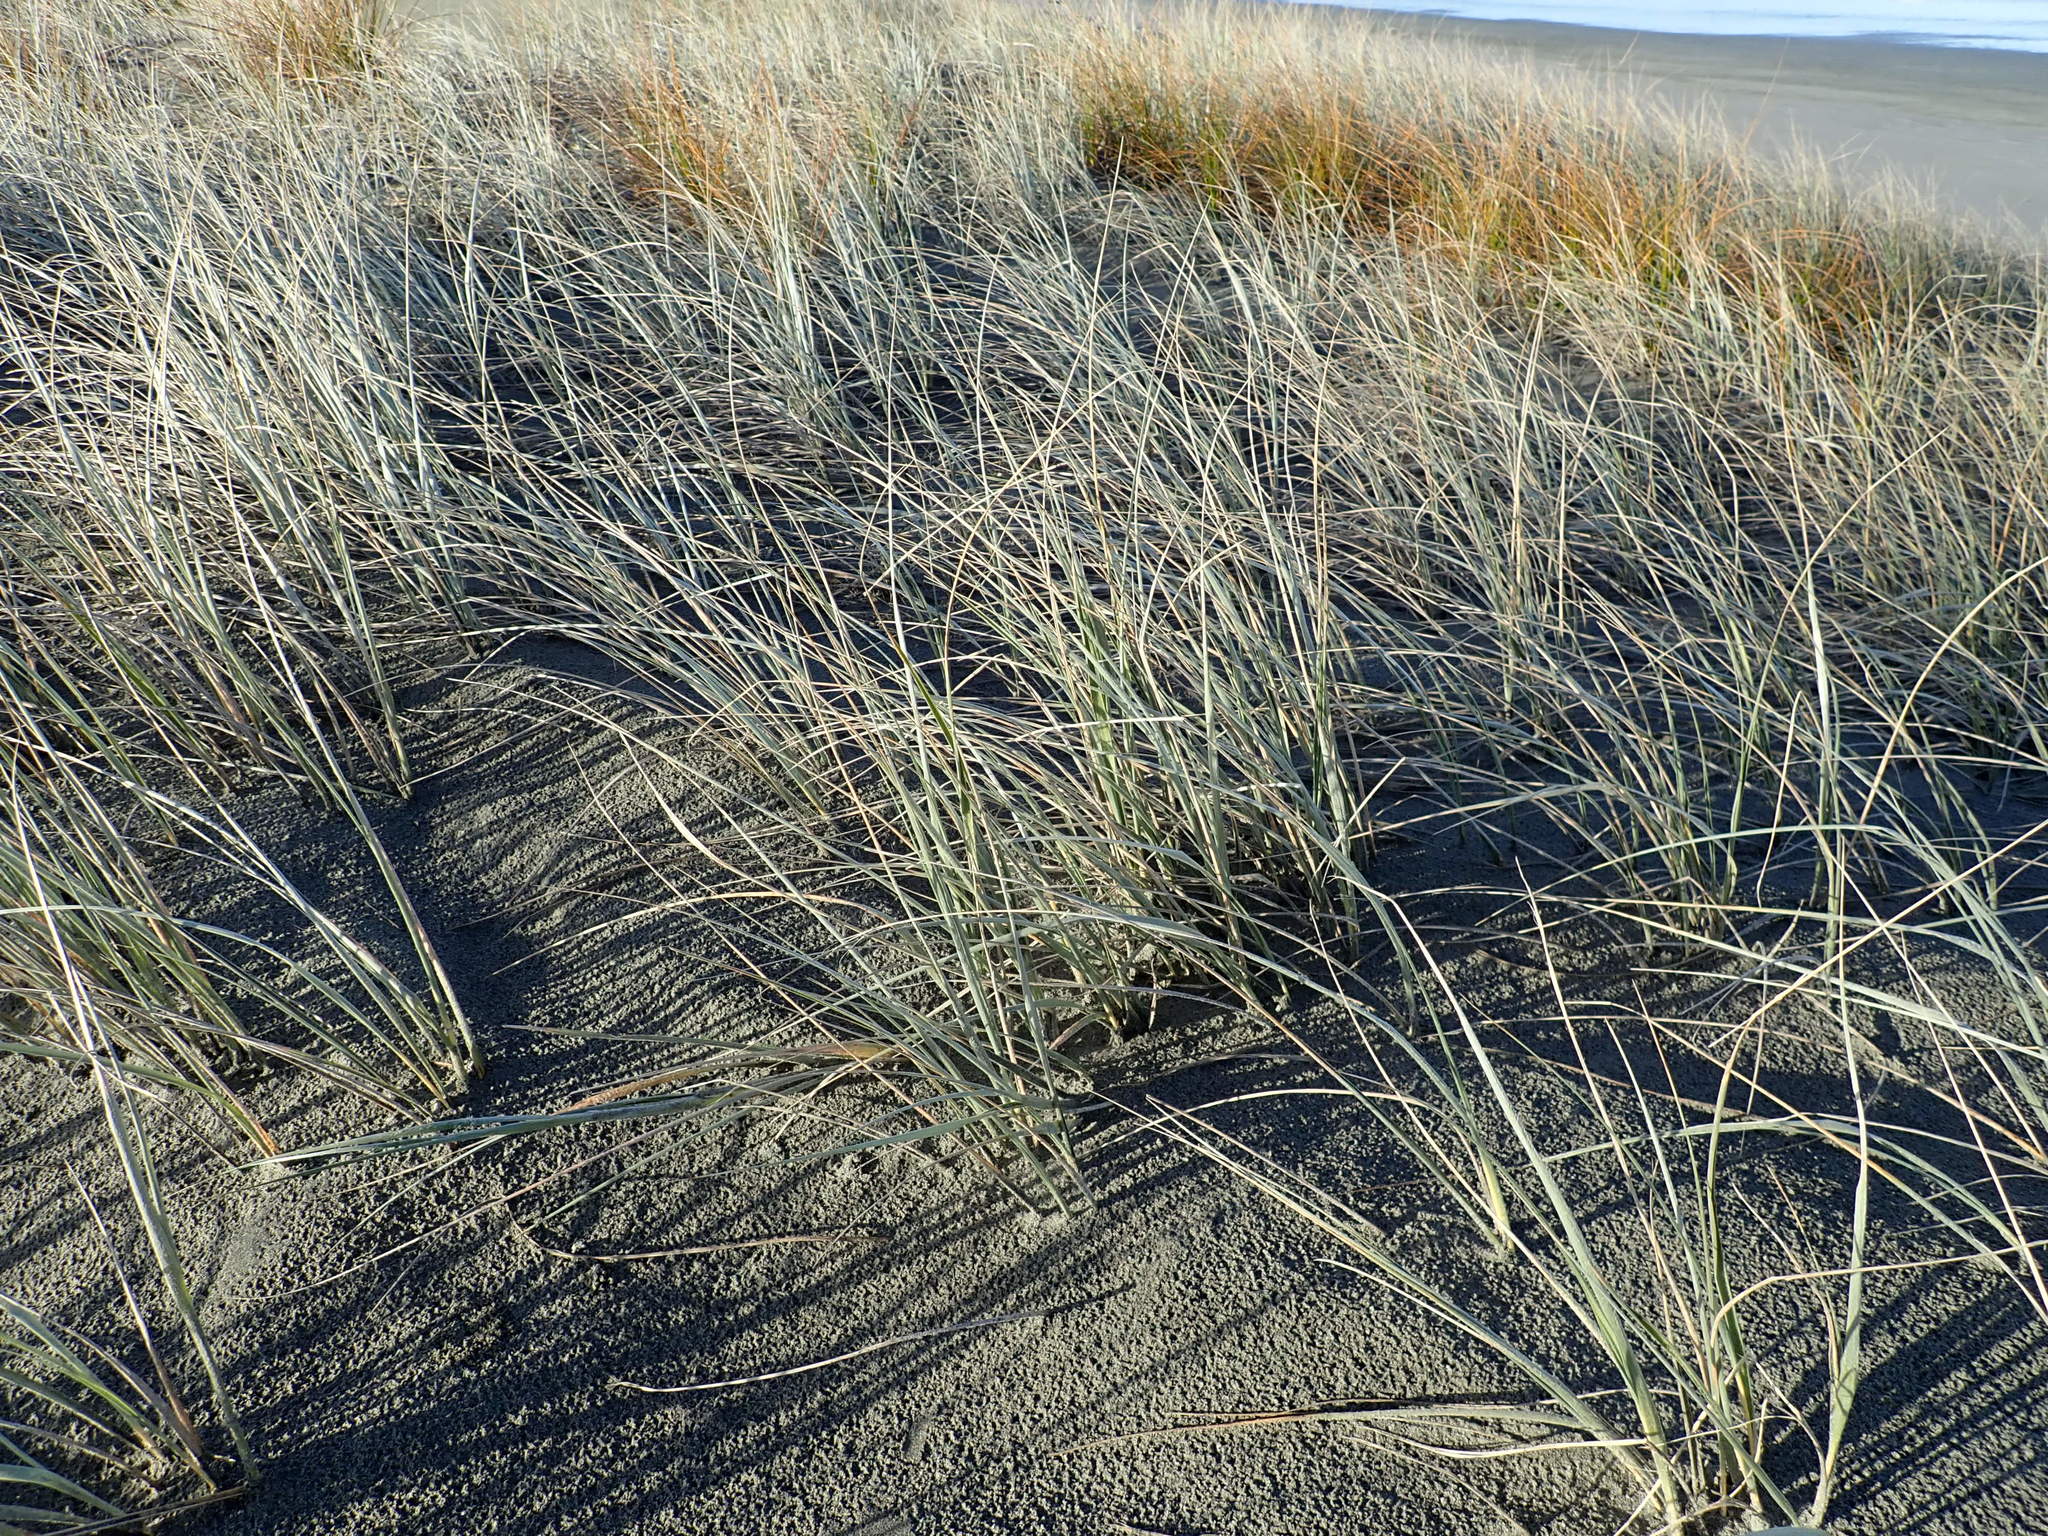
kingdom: Plantae
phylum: Tracheophyta
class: Liliopsida
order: Poales
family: Poaceae
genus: Spinifex
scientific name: Spinifex sericeus
